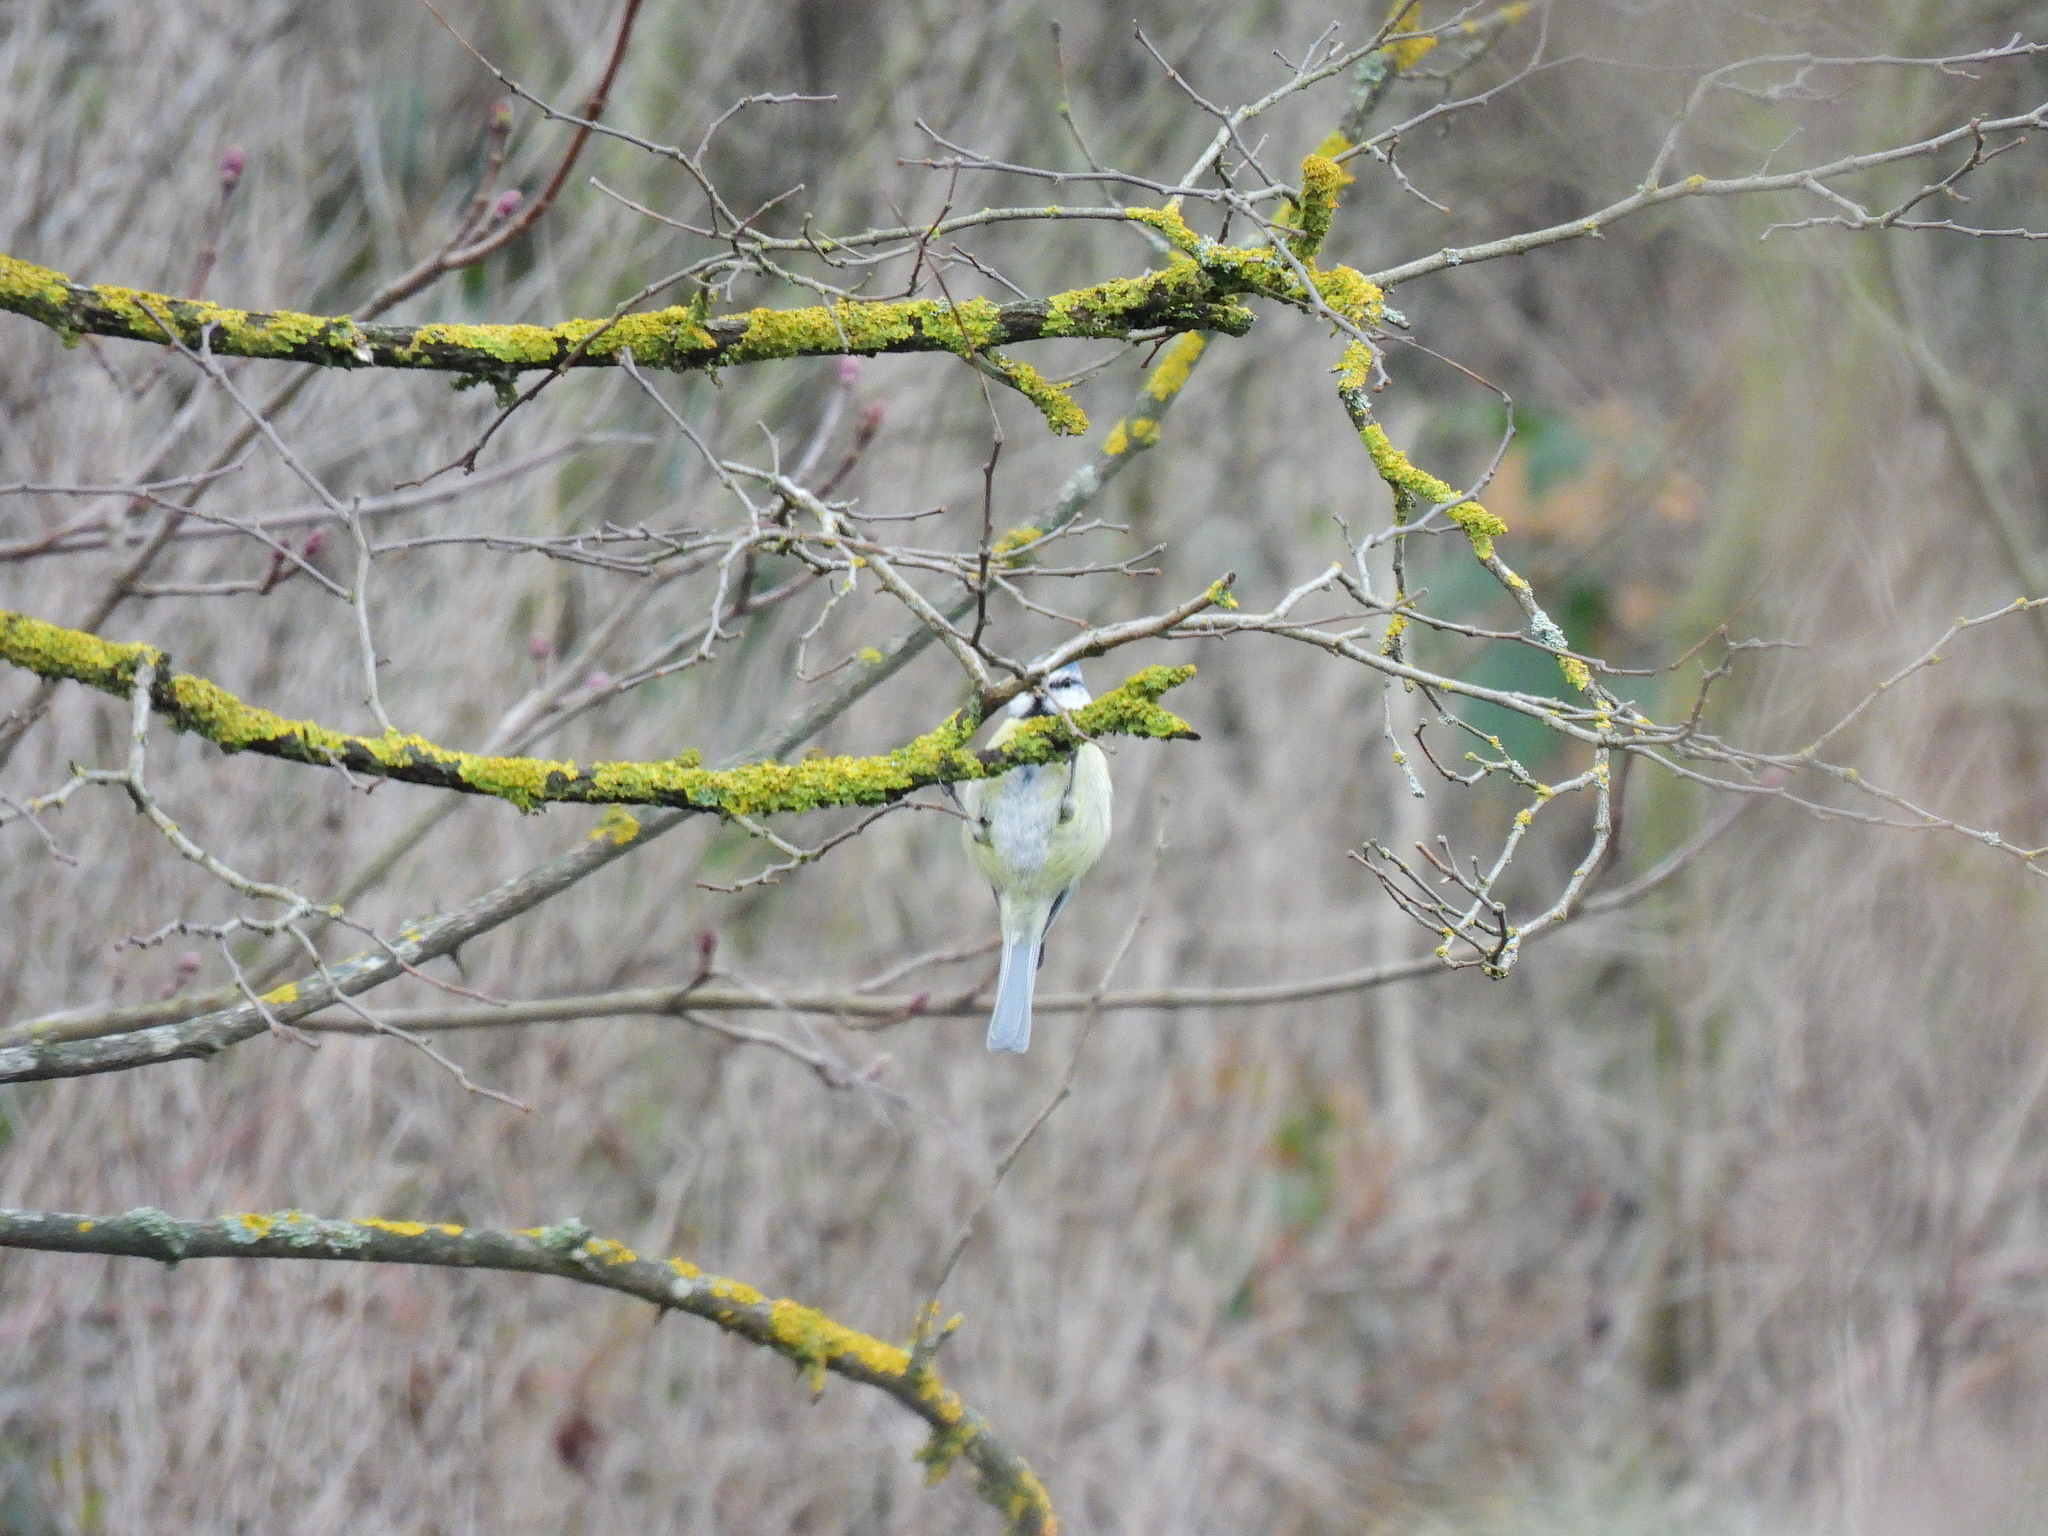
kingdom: Animalia
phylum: Chordata
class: Aves
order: Passeriformes
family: Paridae
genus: Cyanistes
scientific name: Cyanistes caeruleus
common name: Eurasian blue tit
